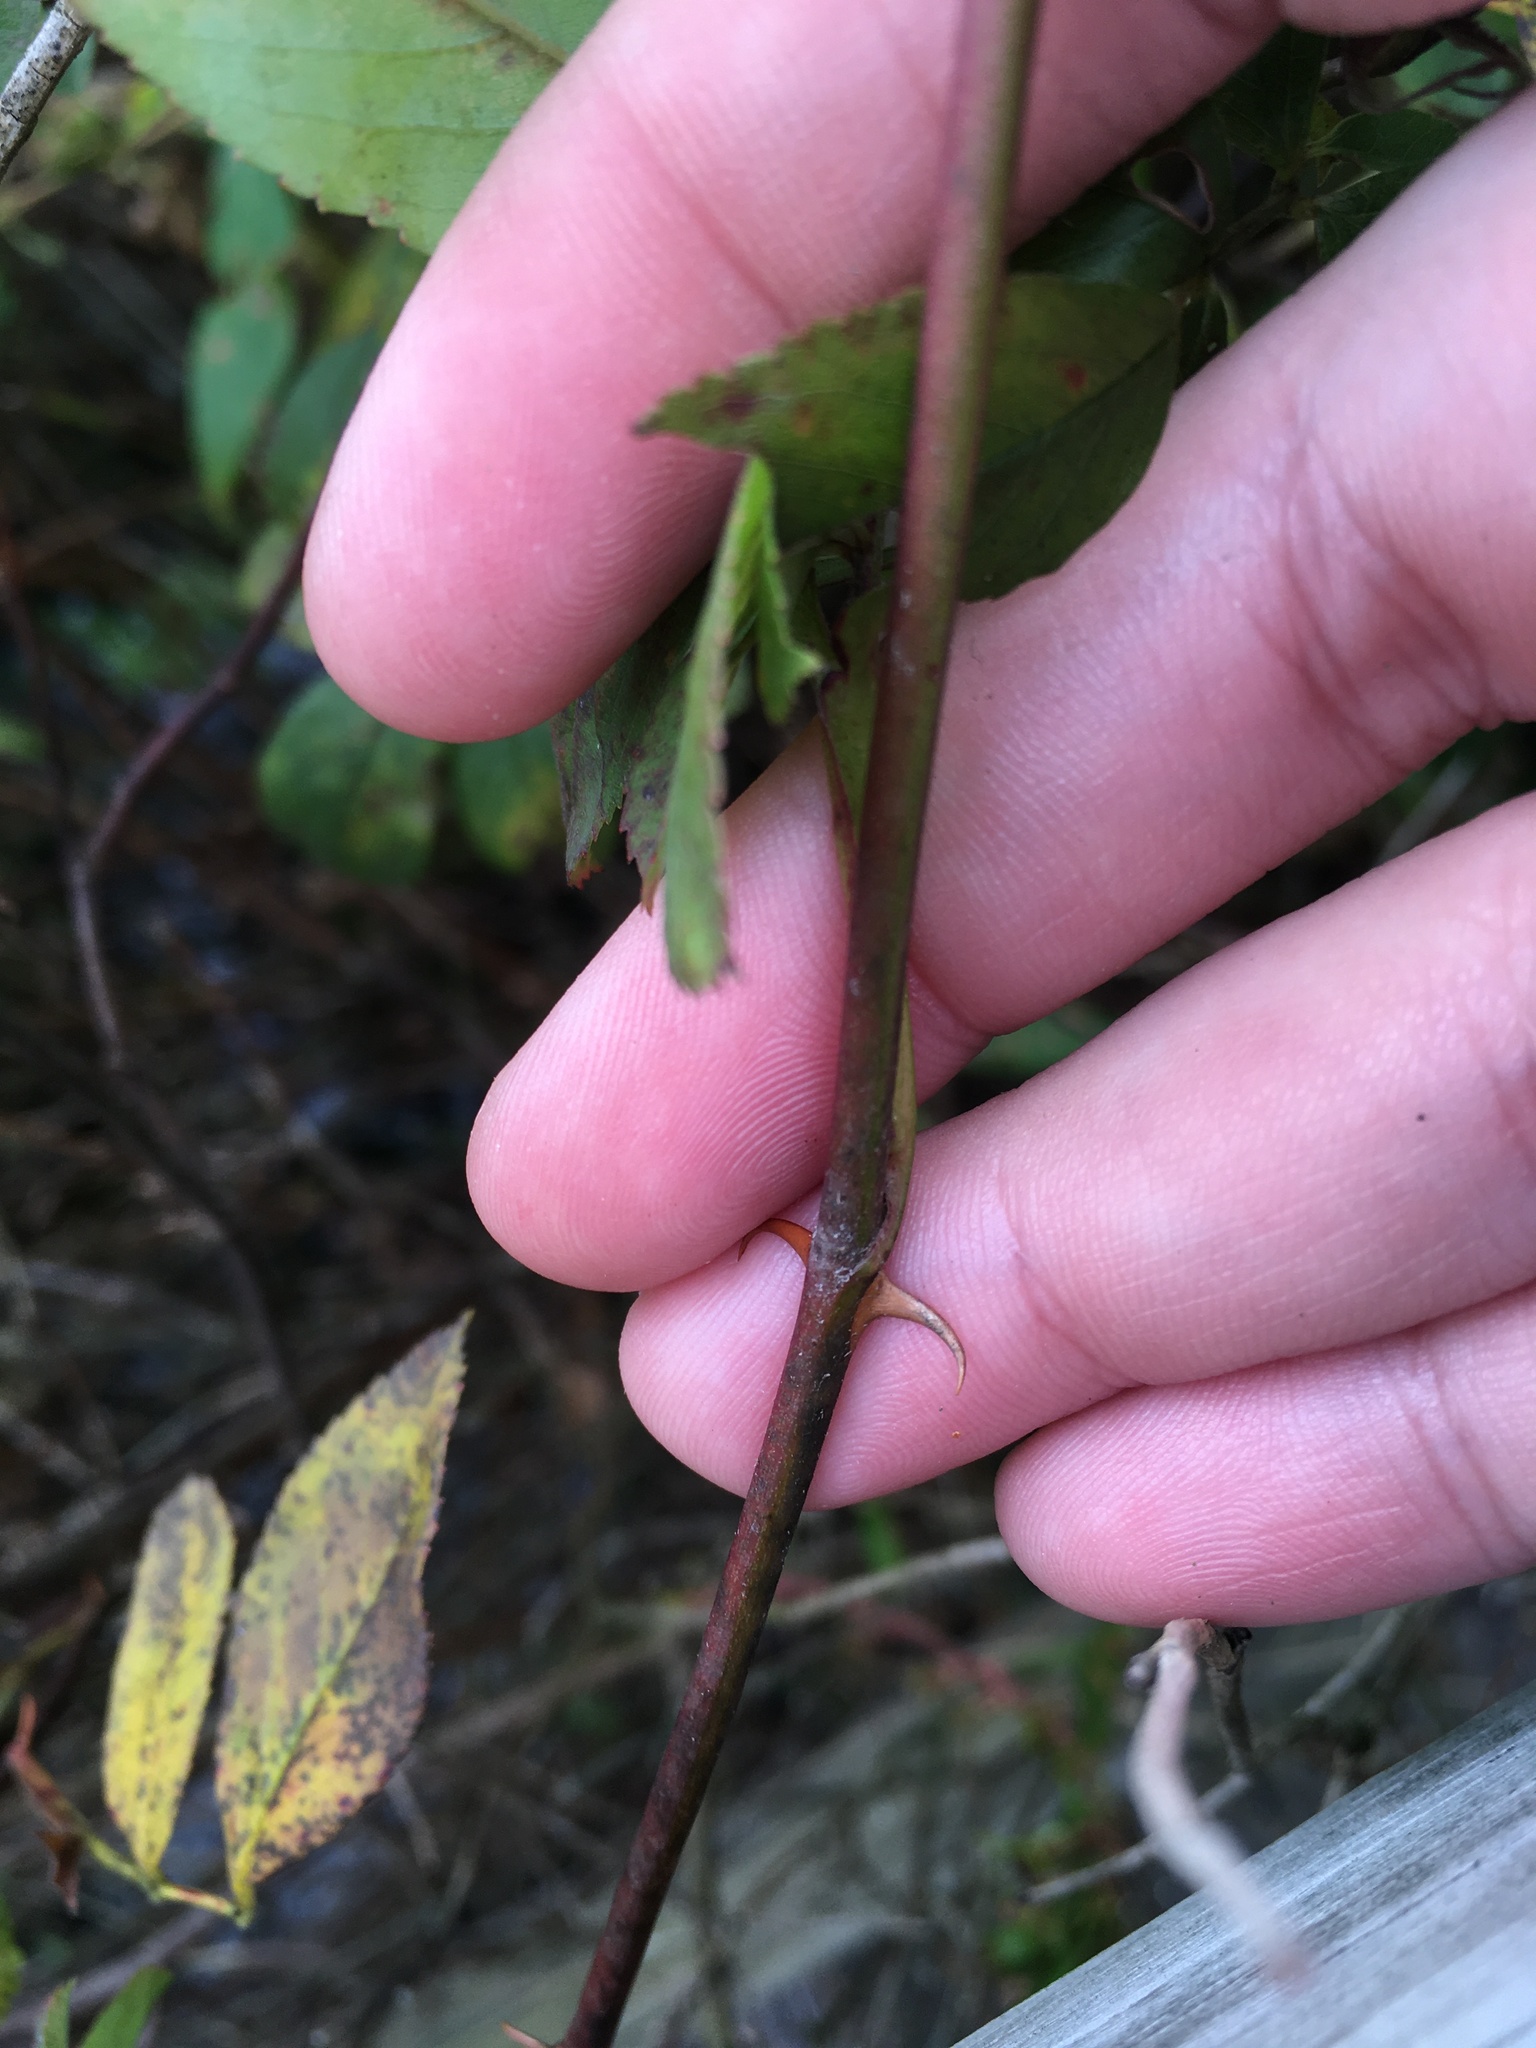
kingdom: Plantae
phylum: Tracheophyta
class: Magnoliopsida
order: Rosales
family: Rosaceae
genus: Rosa
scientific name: Rosa palustris
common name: Swamp rose
